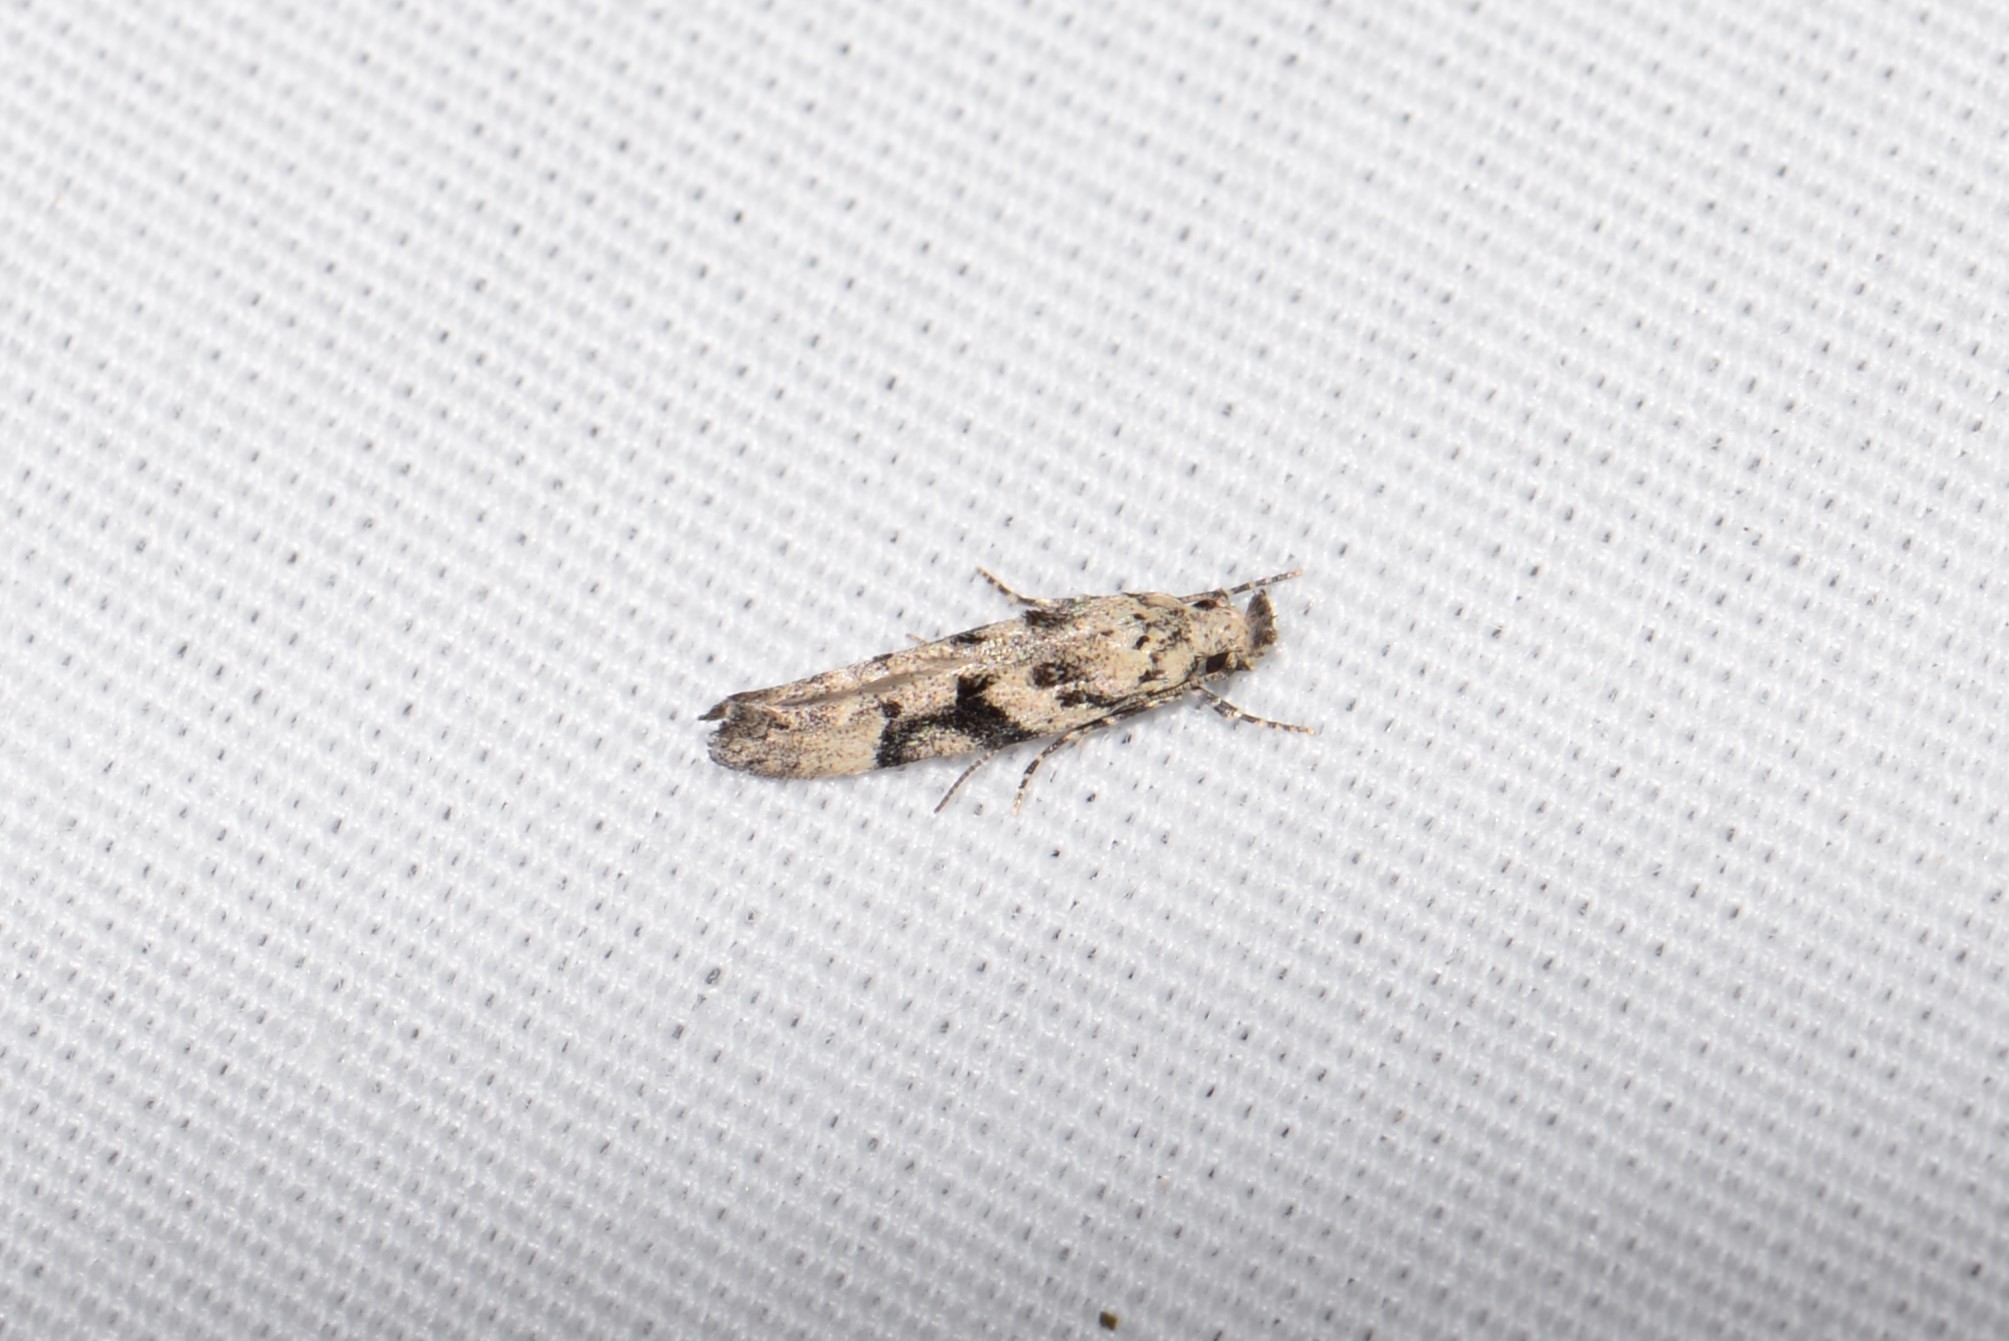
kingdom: Animalia
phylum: Arthropoda
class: Insecta
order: Lepidoptera
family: Gelechiidae
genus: Coleotechnites
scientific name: Coleotechnites atrupictella
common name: Spruce micromoth
